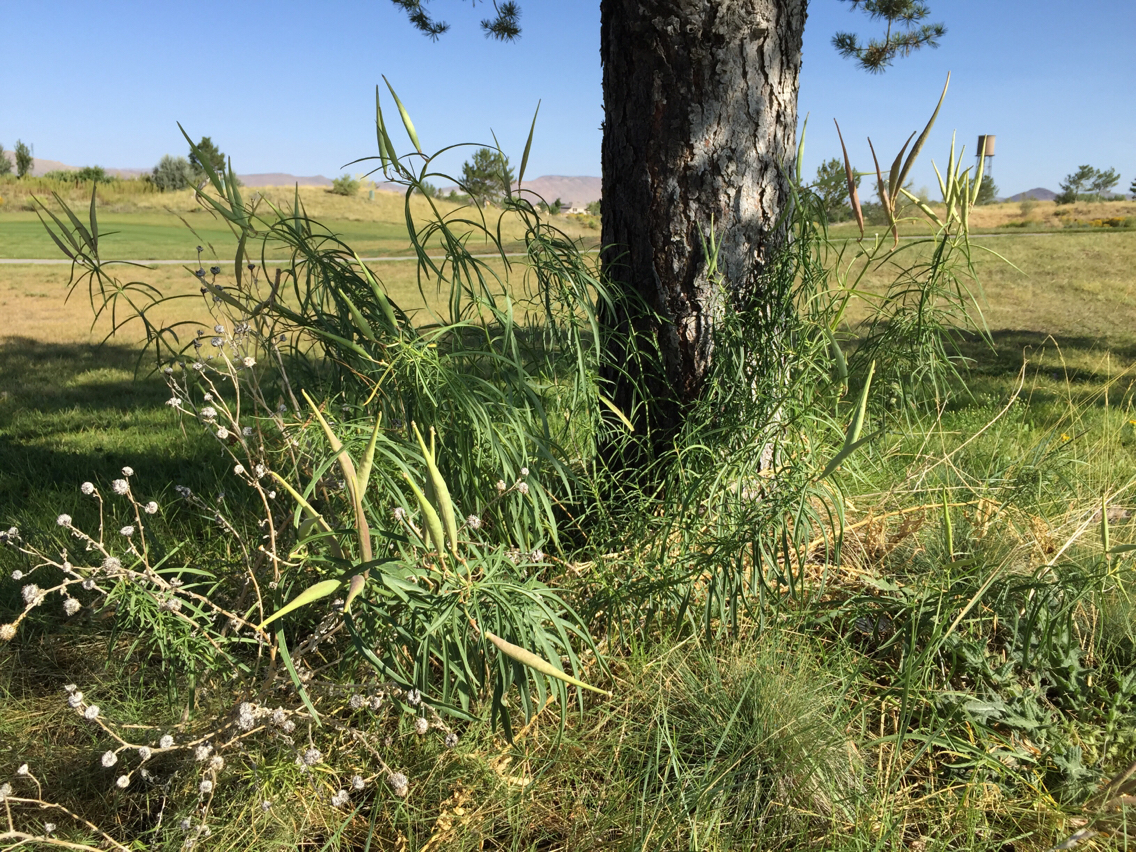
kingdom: Plantae
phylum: Tracheophyta
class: Magnoliopsida
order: Gentianales
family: Apocynaceae
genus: Asclepias
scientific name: Asclepias fascicularis
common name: Mexican milkweed
